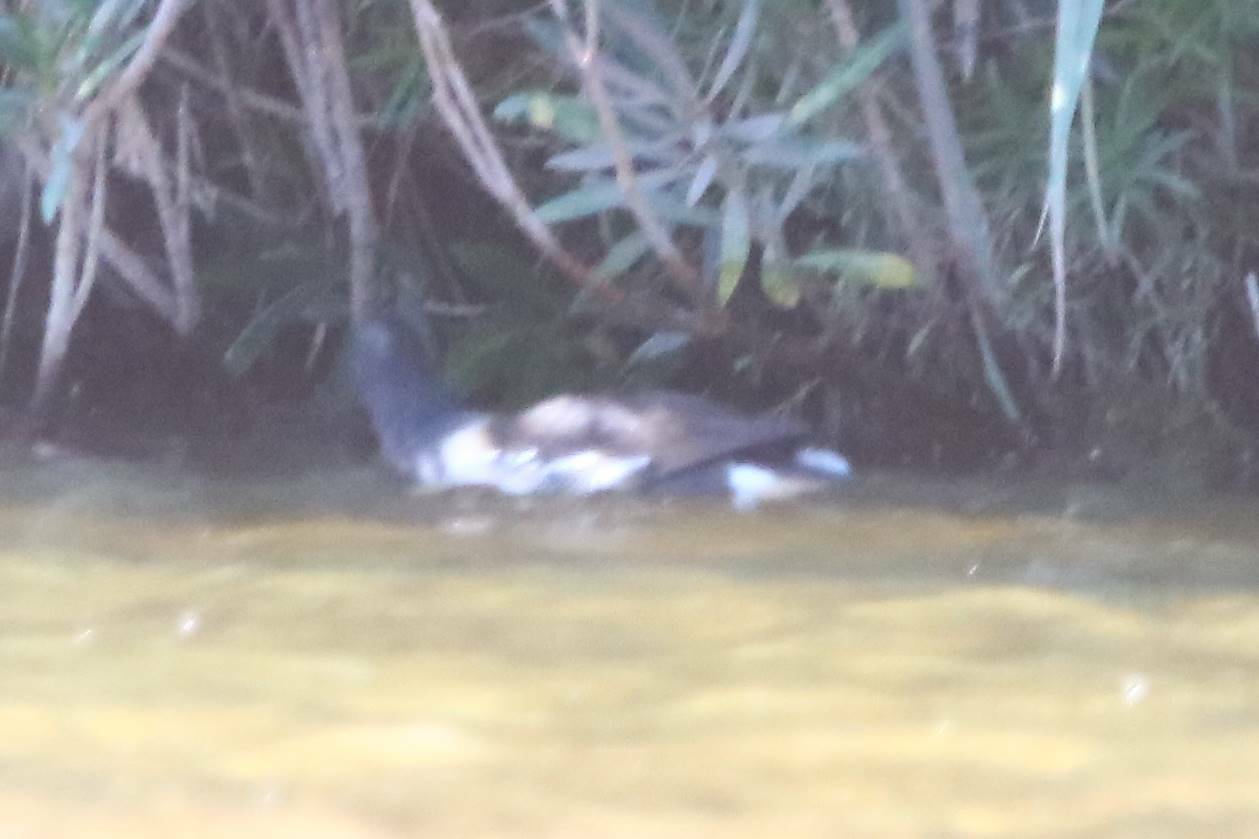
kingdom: Animalia
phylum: Chordata
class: Aves
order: Gruiformes
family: Rallidae
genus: Gallinula
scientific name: Gallinula chloropus
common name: Common moorhen
